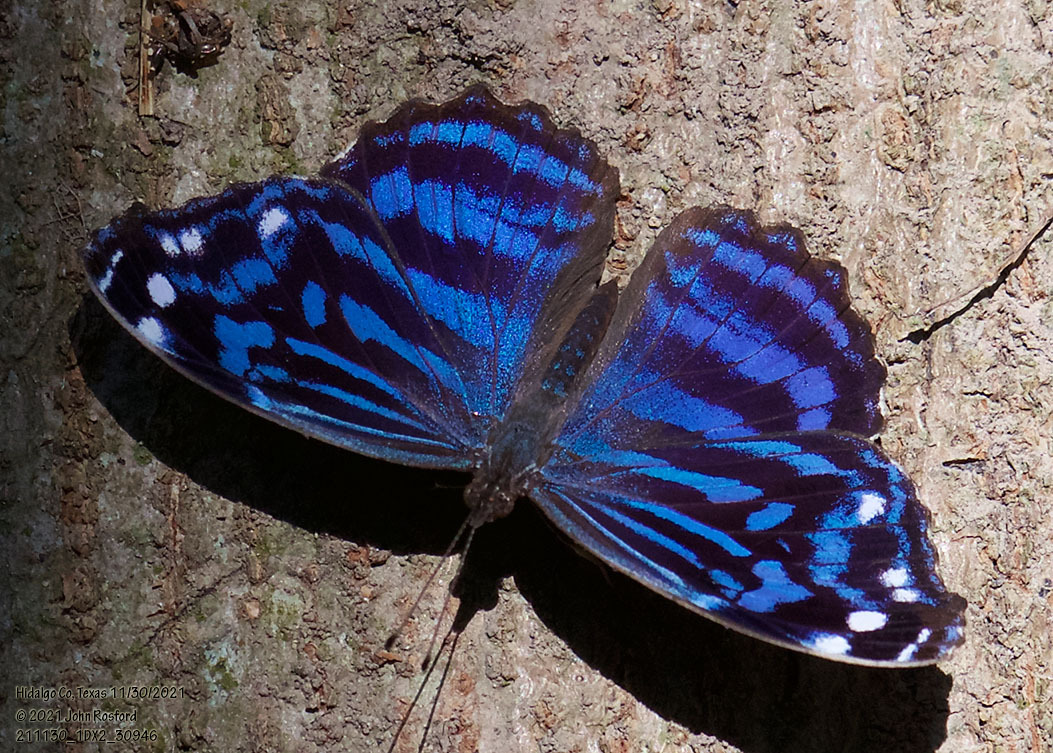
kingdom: Animalia
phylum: Arthropoda
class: Insecta
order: Lepidoptera
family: Nymphalidae
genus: Myscelia
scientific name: Myscelia ethusa
